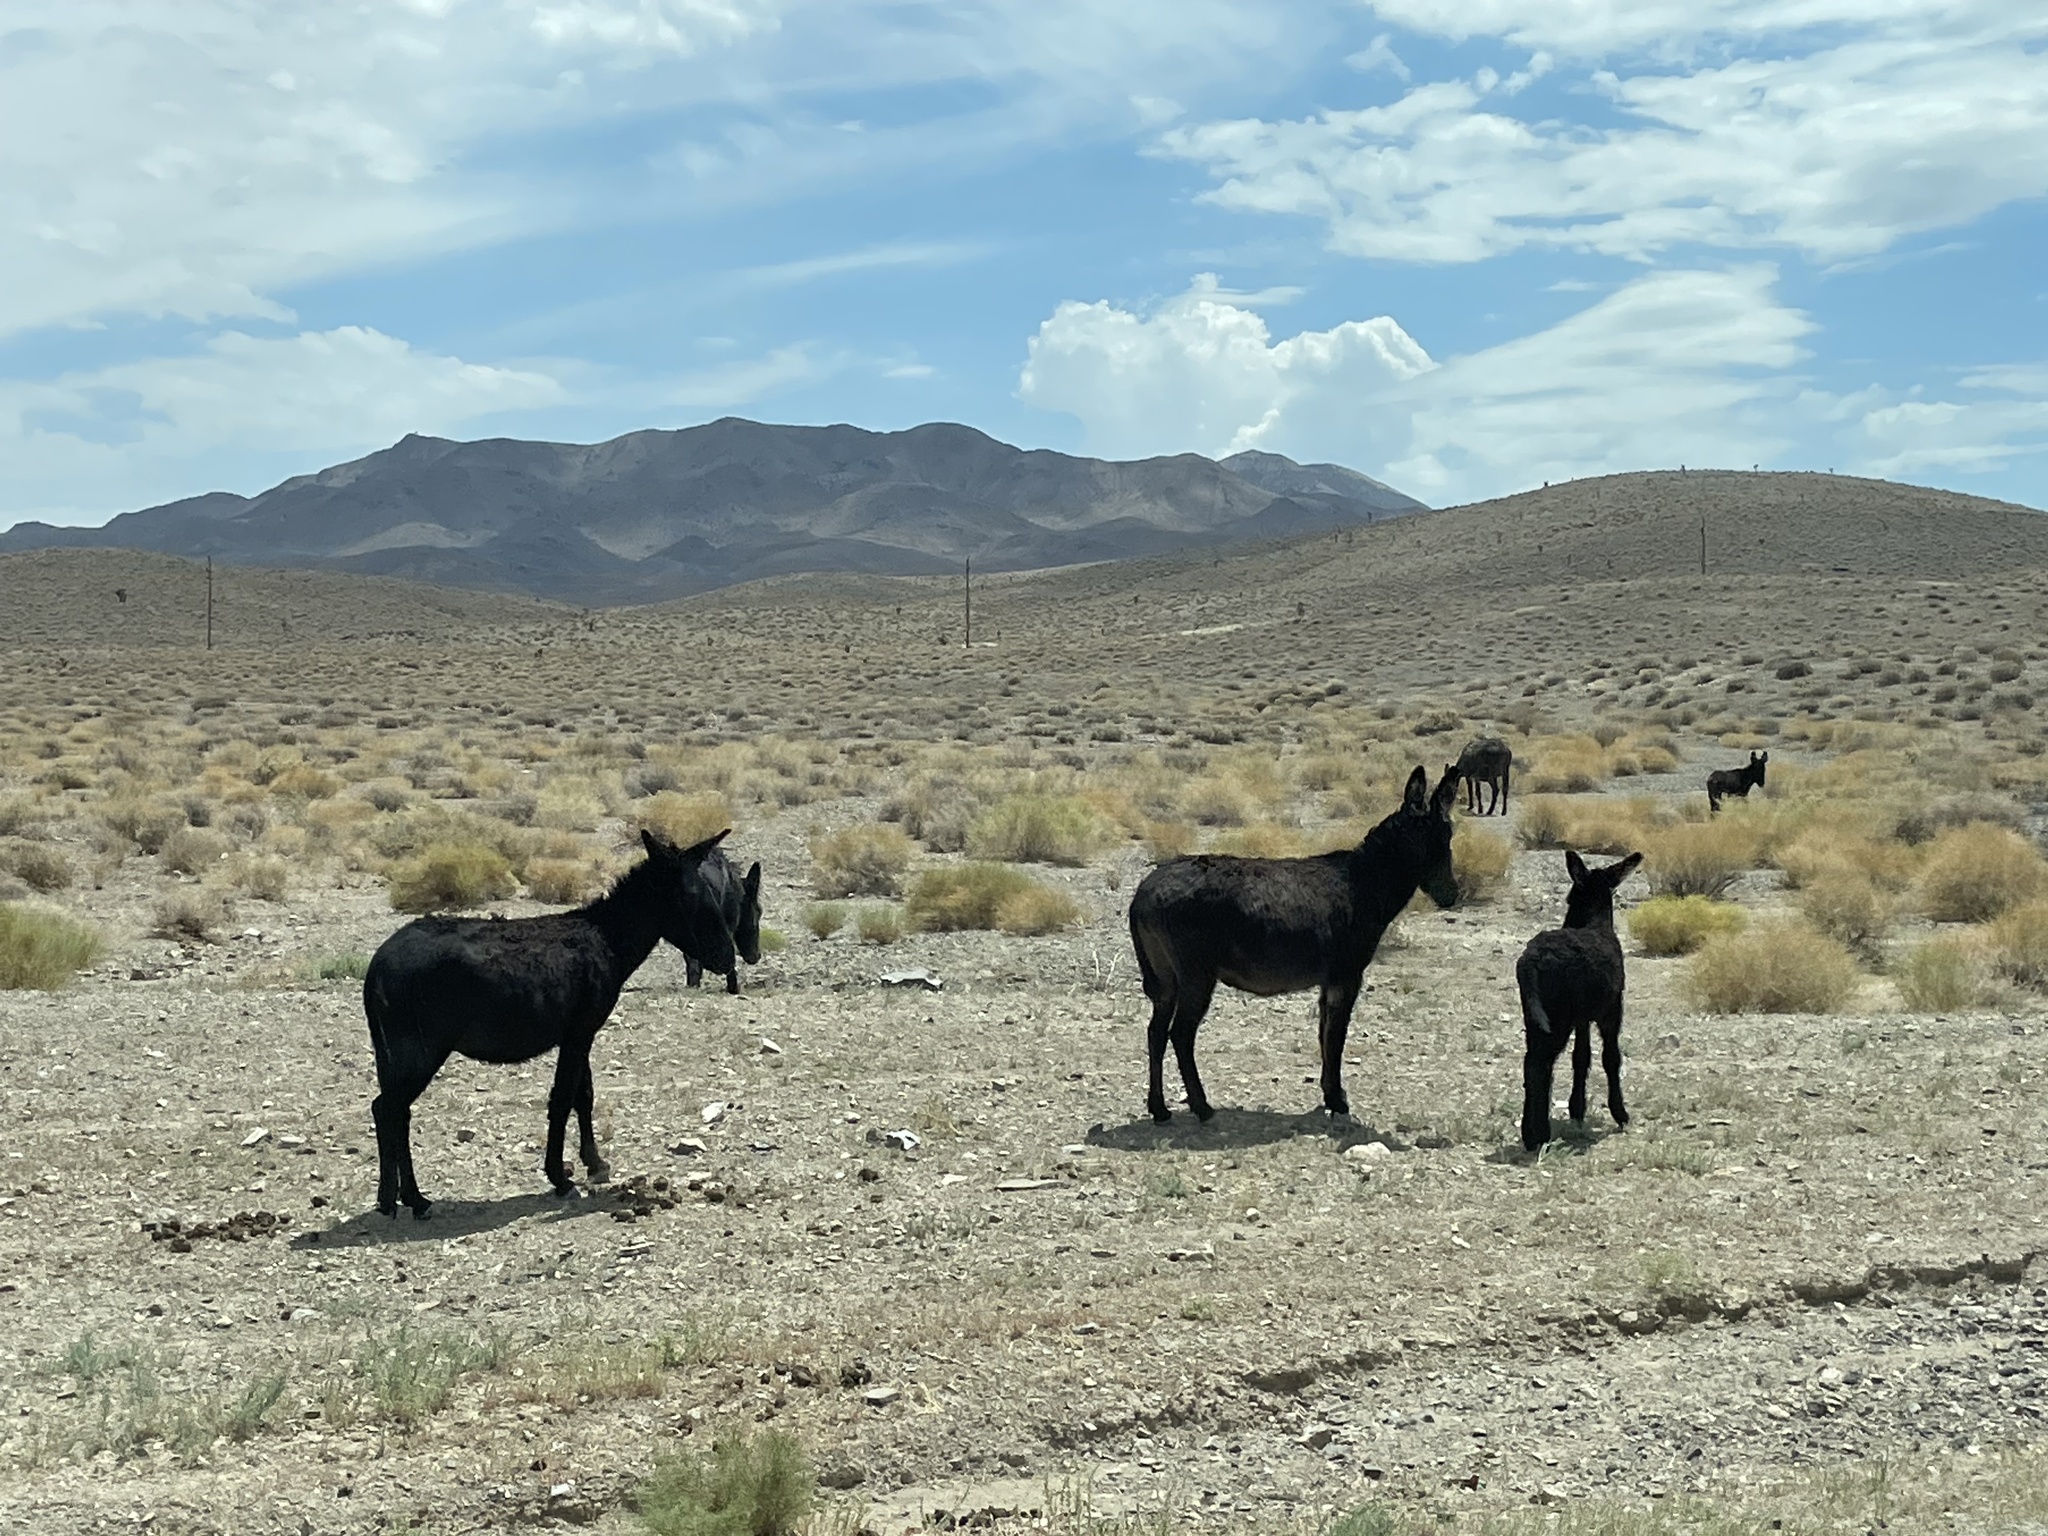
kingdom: Animalia
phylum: Chordata
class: Mammalia
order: Perissodactyla
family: Equidae
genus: Equus
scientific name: Equus asinus
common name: Ass
